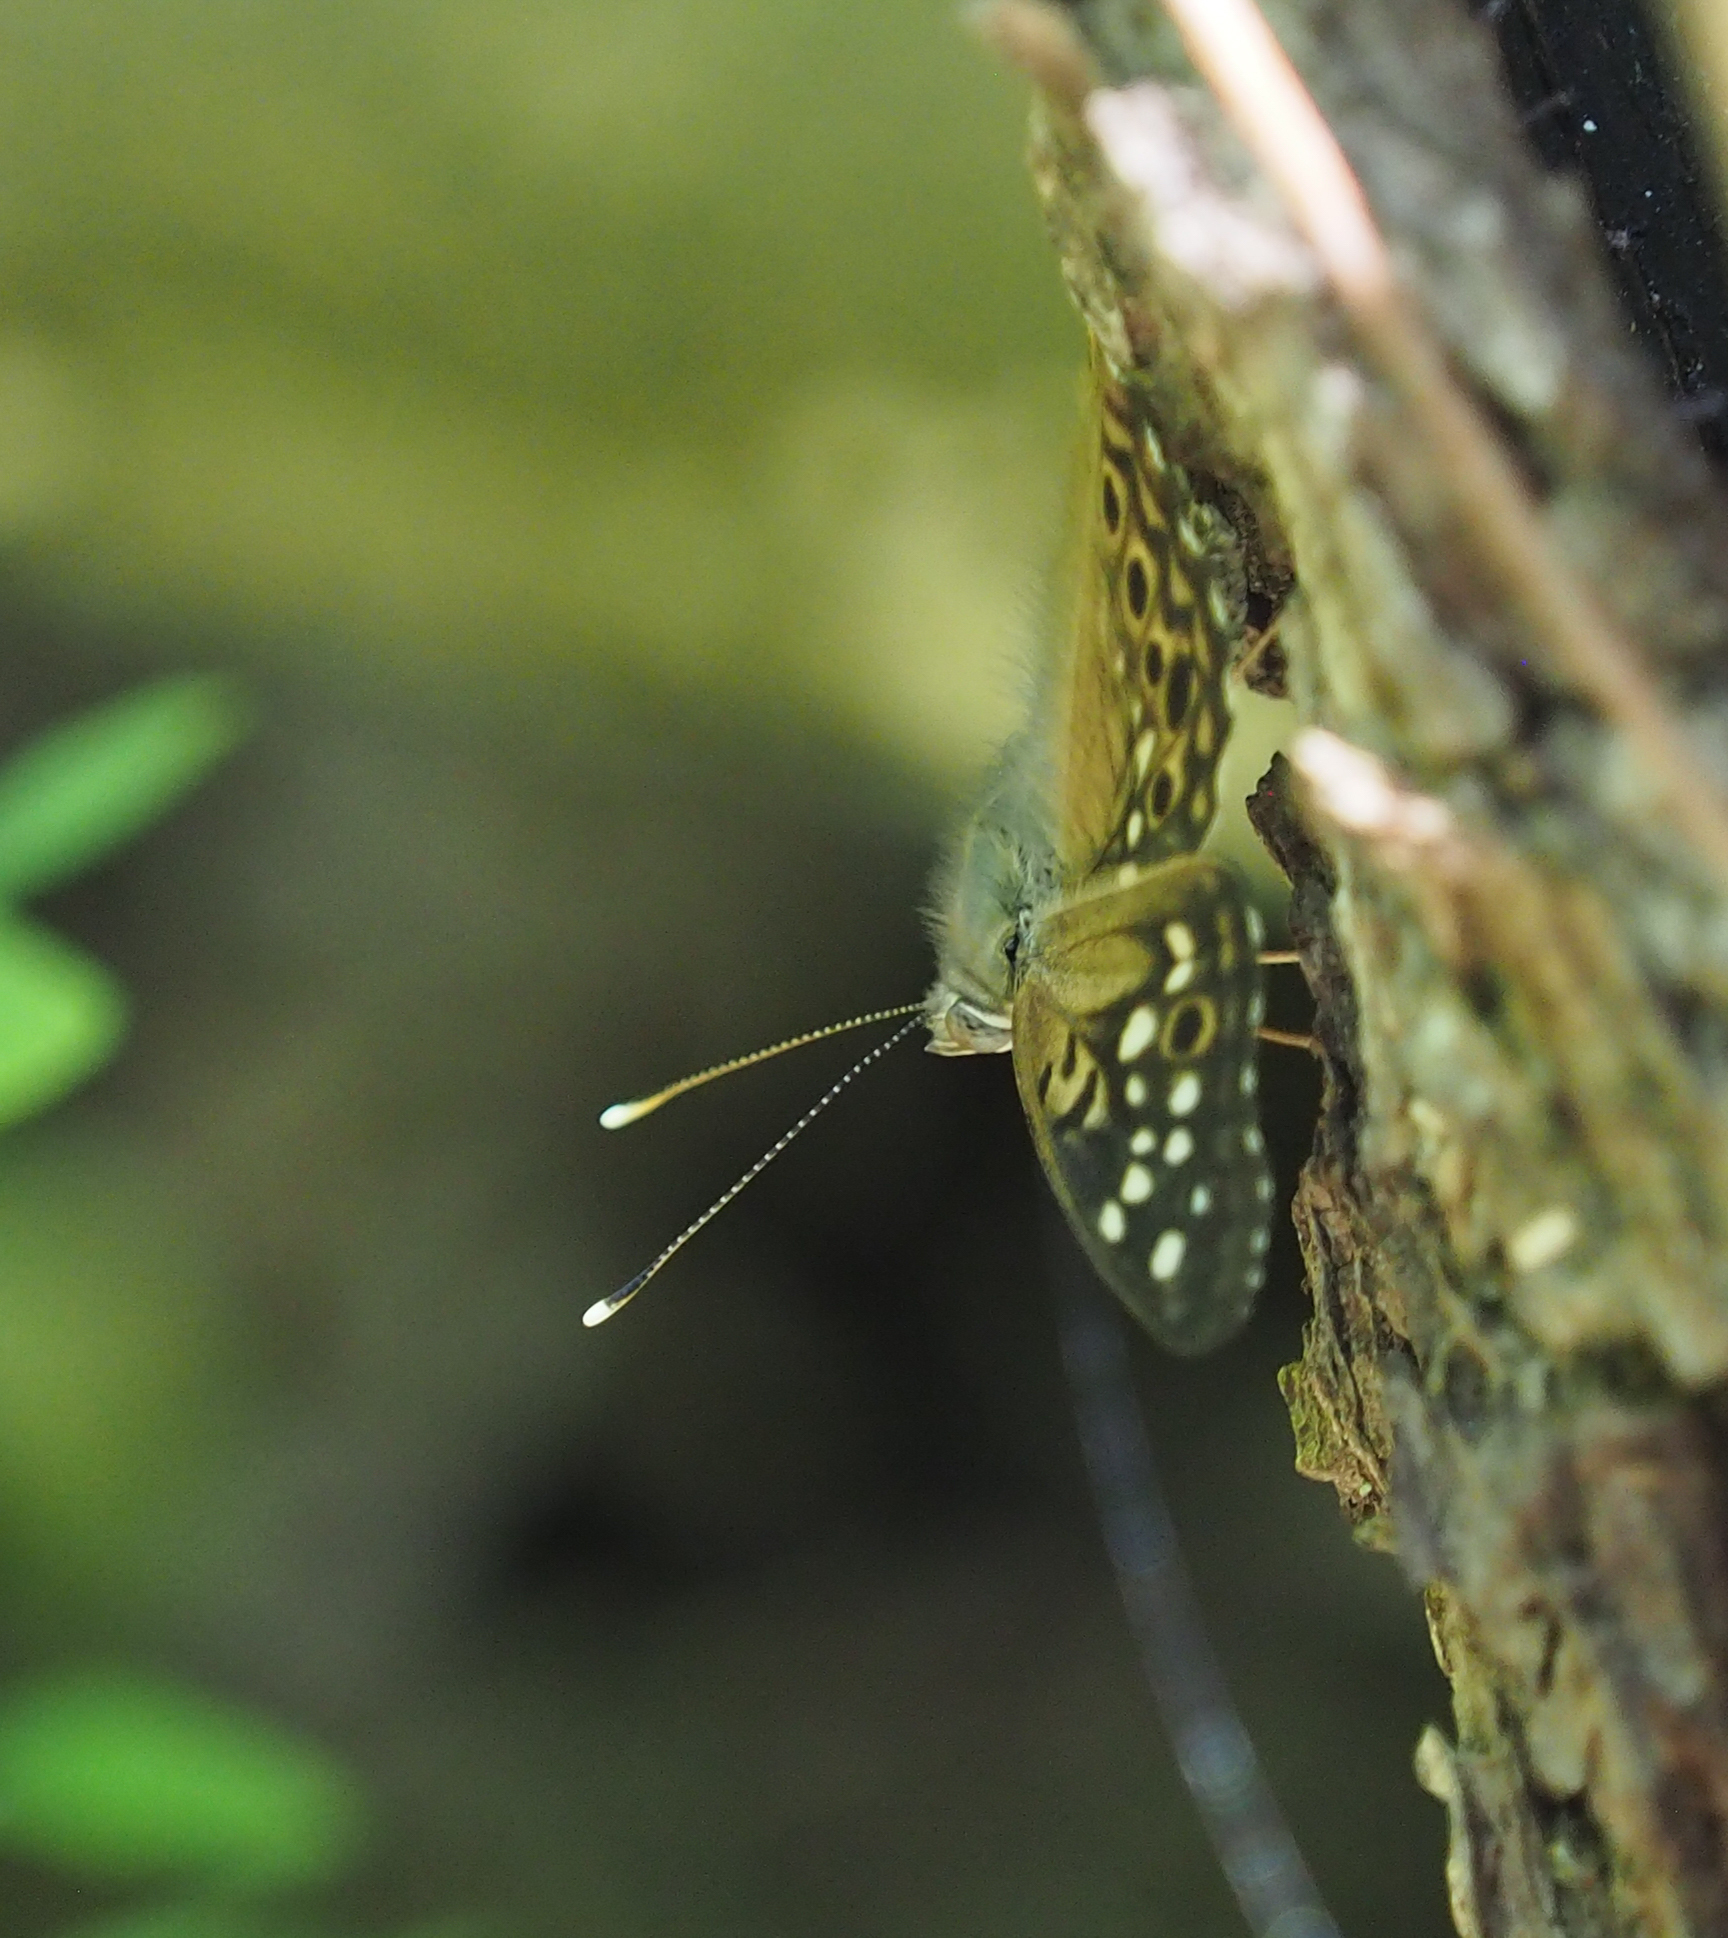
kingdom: Animalia
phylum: Arthropoda
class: Insecta
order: Lepidoptera
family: Nymphalidae
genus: Asterocampa
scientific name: Asterocampa celtis
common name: Hackberry emperor
